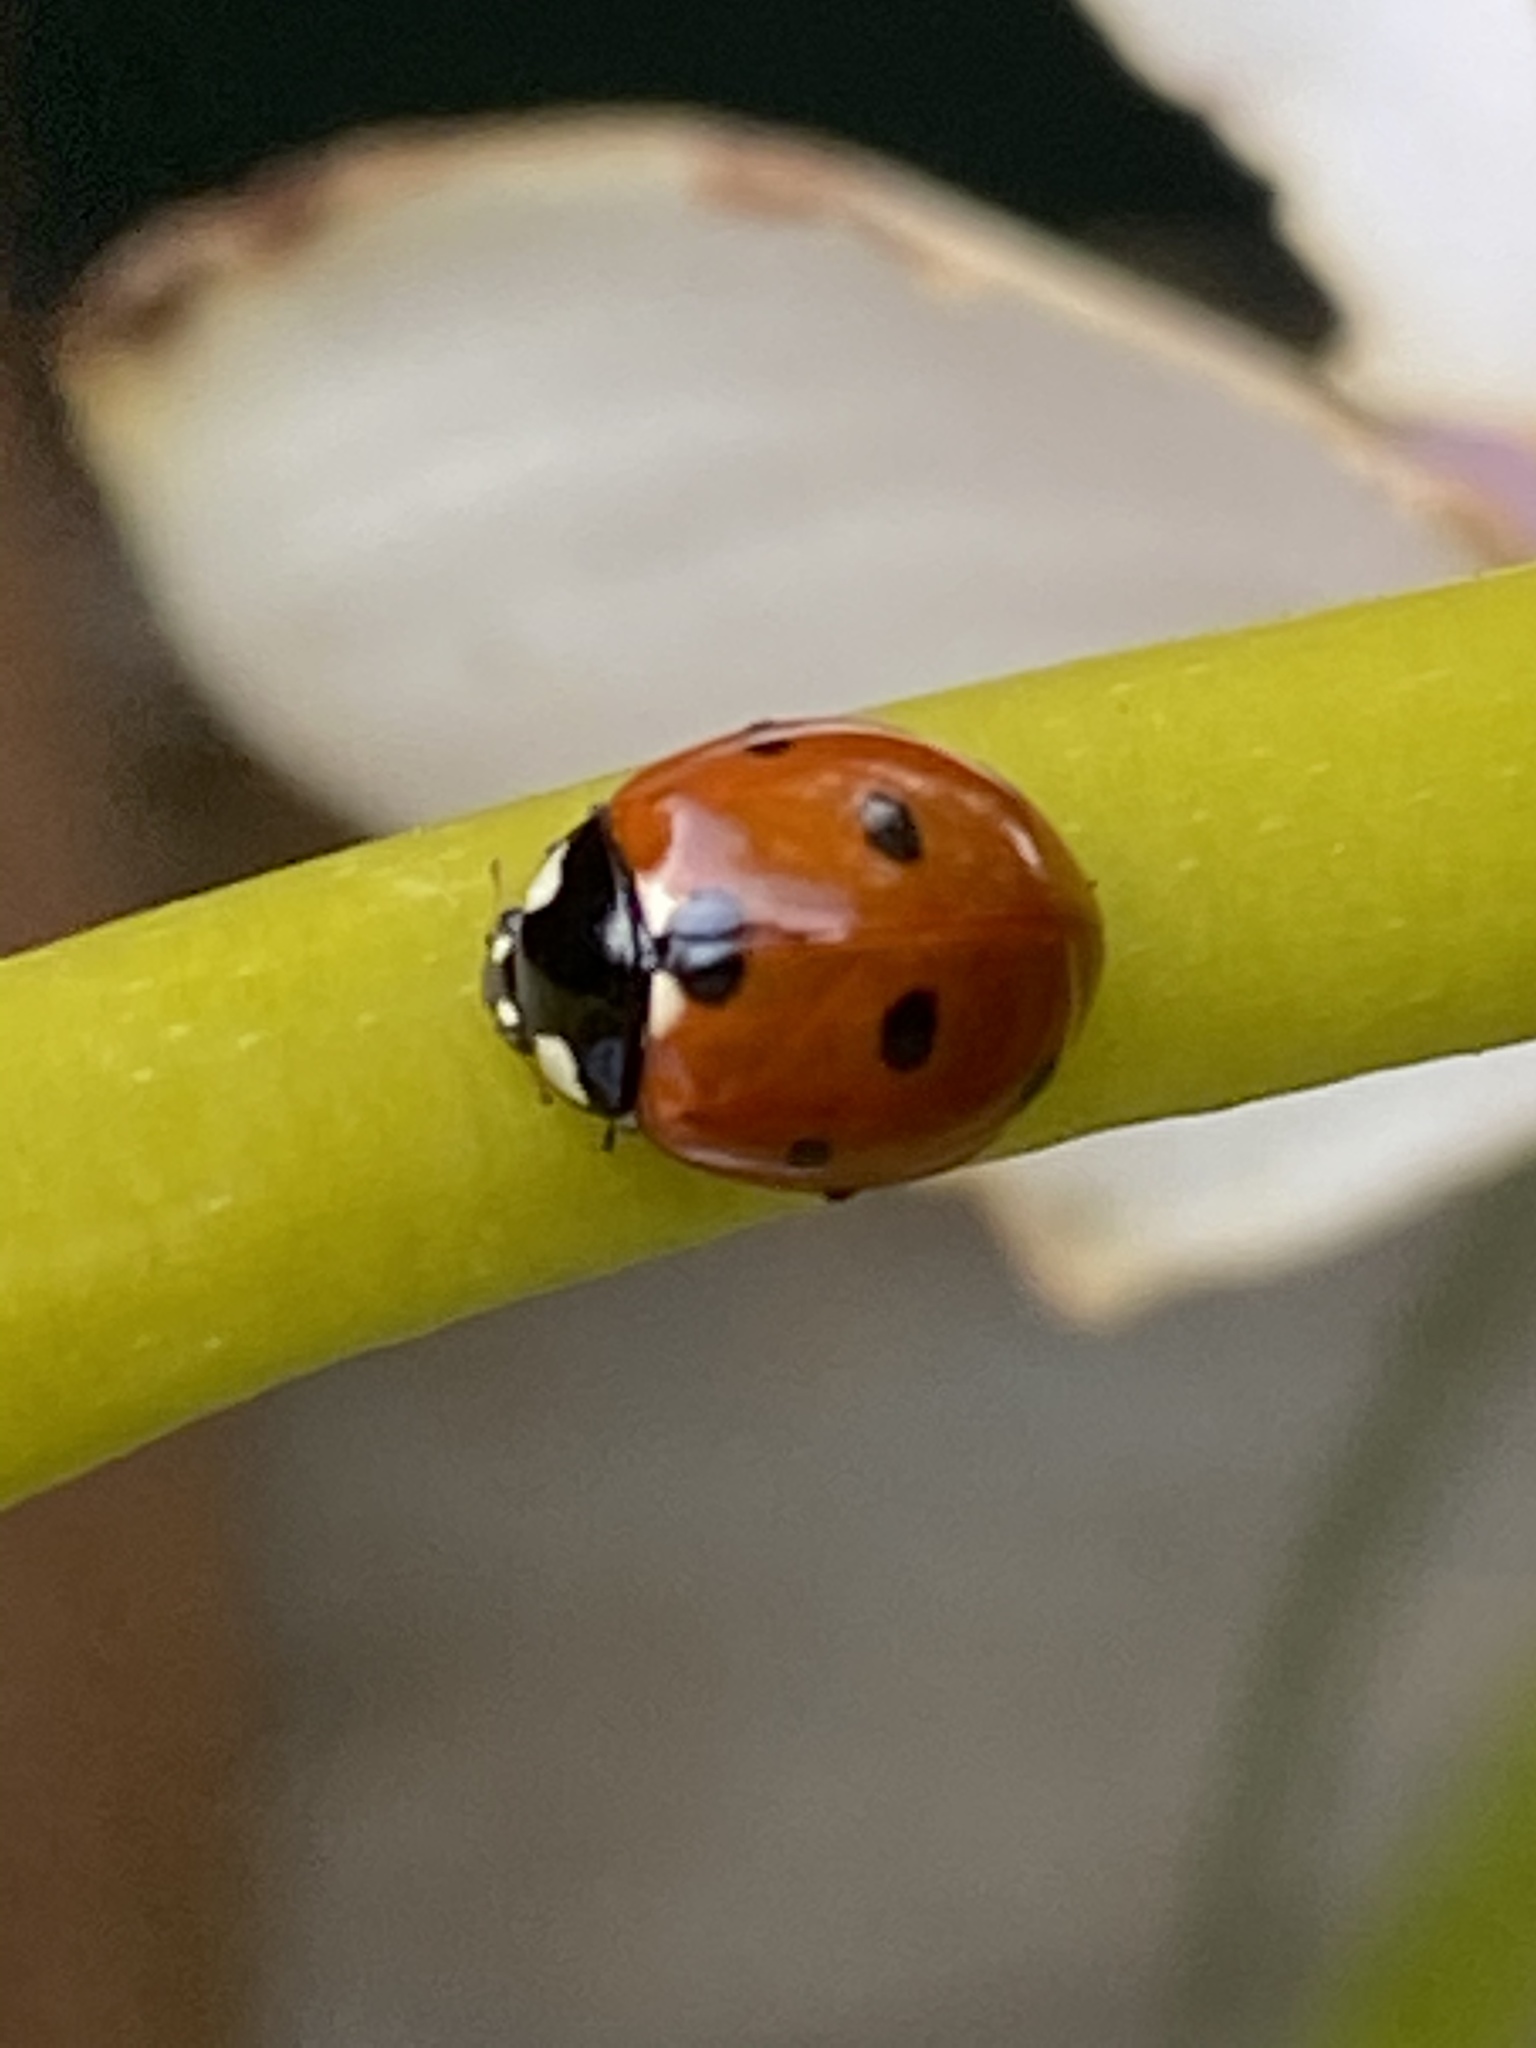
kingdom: Animalia
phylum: Arthropoda
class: Insecta
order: Coleoptera
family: Coccinellidae
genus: Coccinella
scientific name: Coccinella septempunctata
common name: Sevenspotted lady beetle
